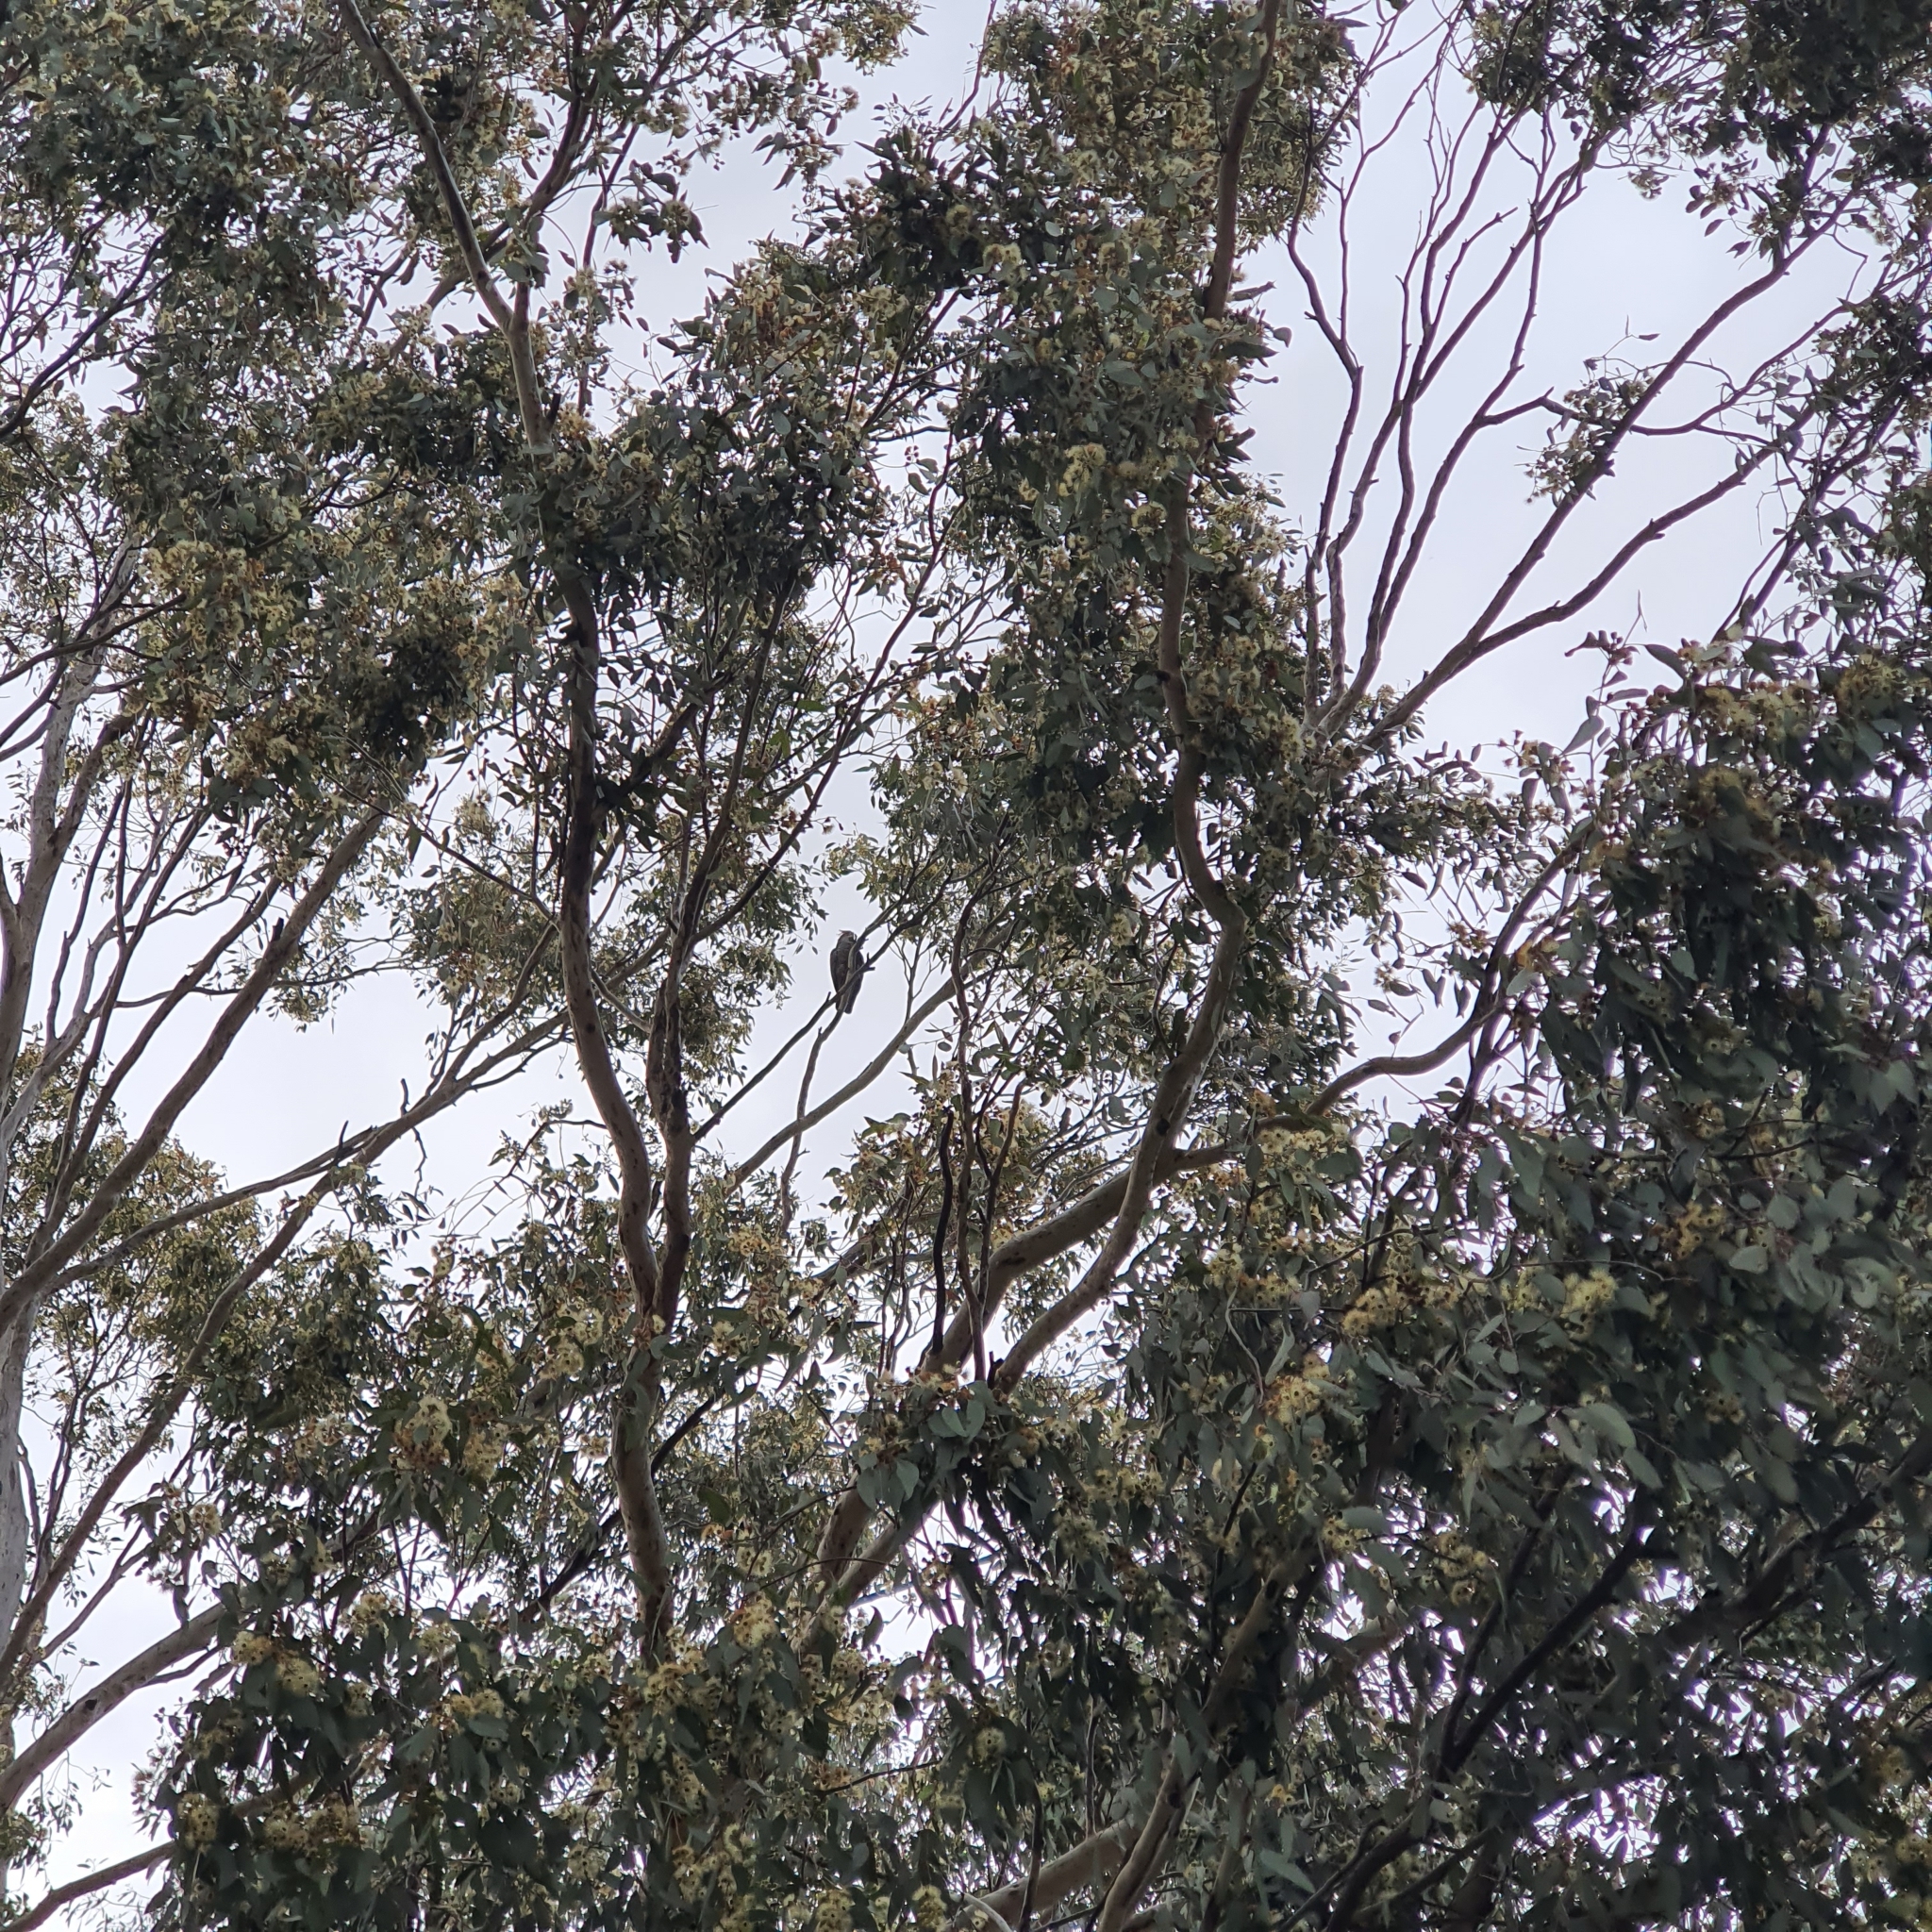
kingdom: Animalia
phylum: Chordata
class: Aves
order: Psittaciformes
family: Psittacidae
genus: Callocephalon
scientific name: Callocephalon fimbriatum
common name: Gang-gang cockatoo
